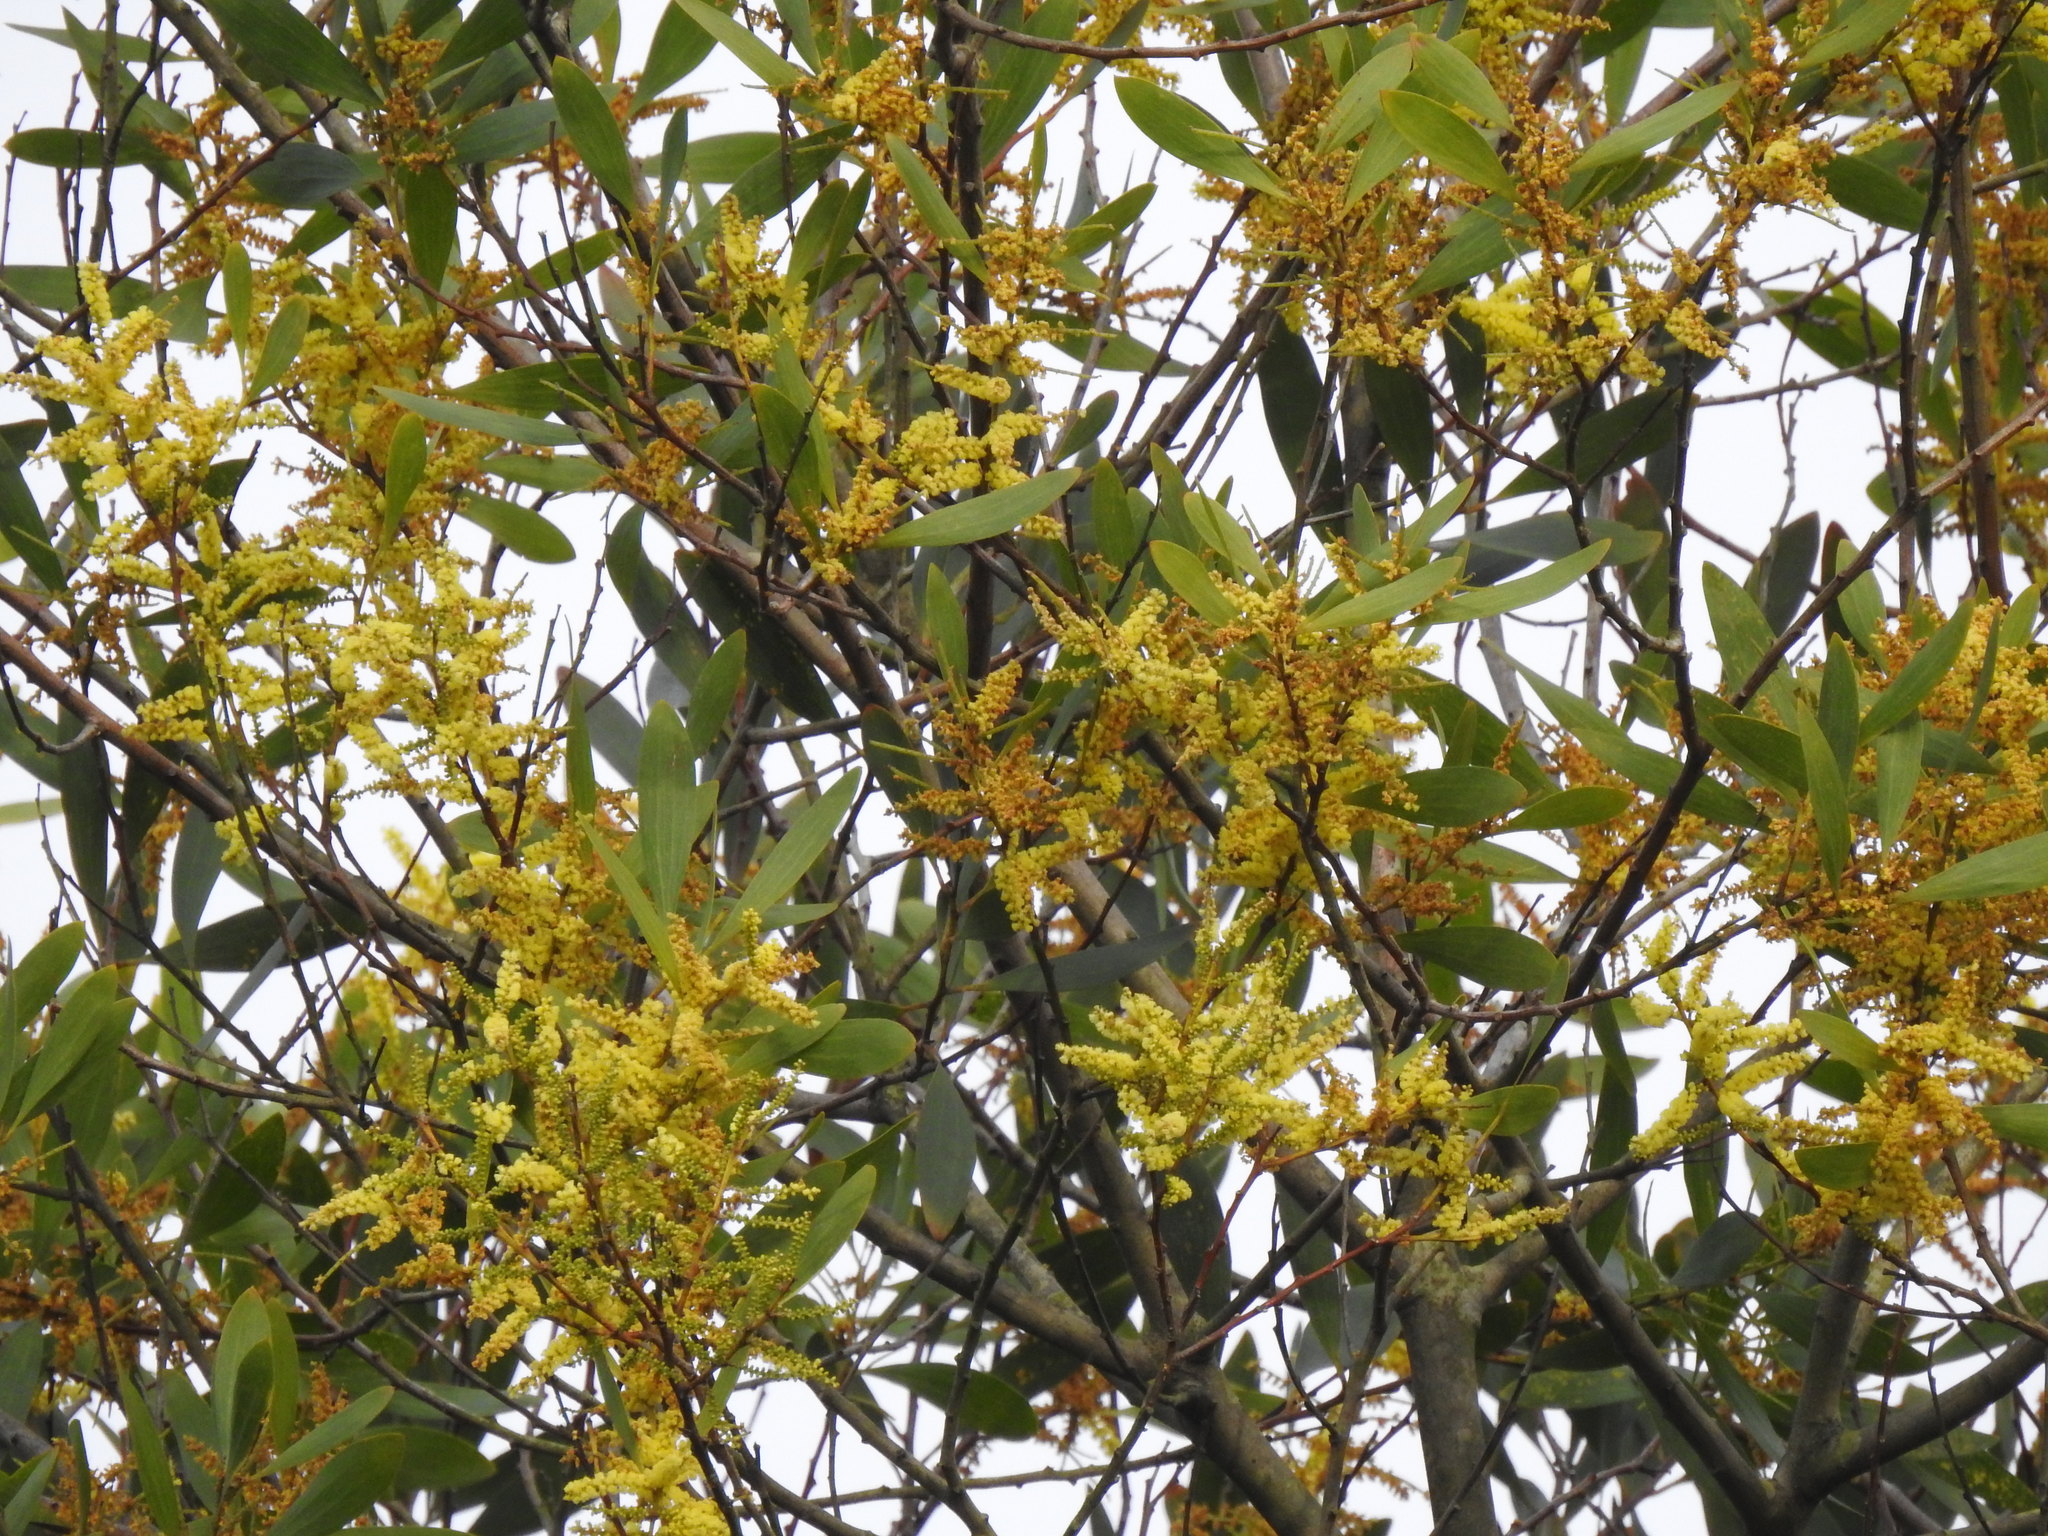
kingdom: Plantae
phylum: Tracheophyta
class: Magnoliopsida
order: Fabales
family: Fabaceae
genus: Acacia
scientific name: Acacia longifolia
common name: Sydney golden wattle
